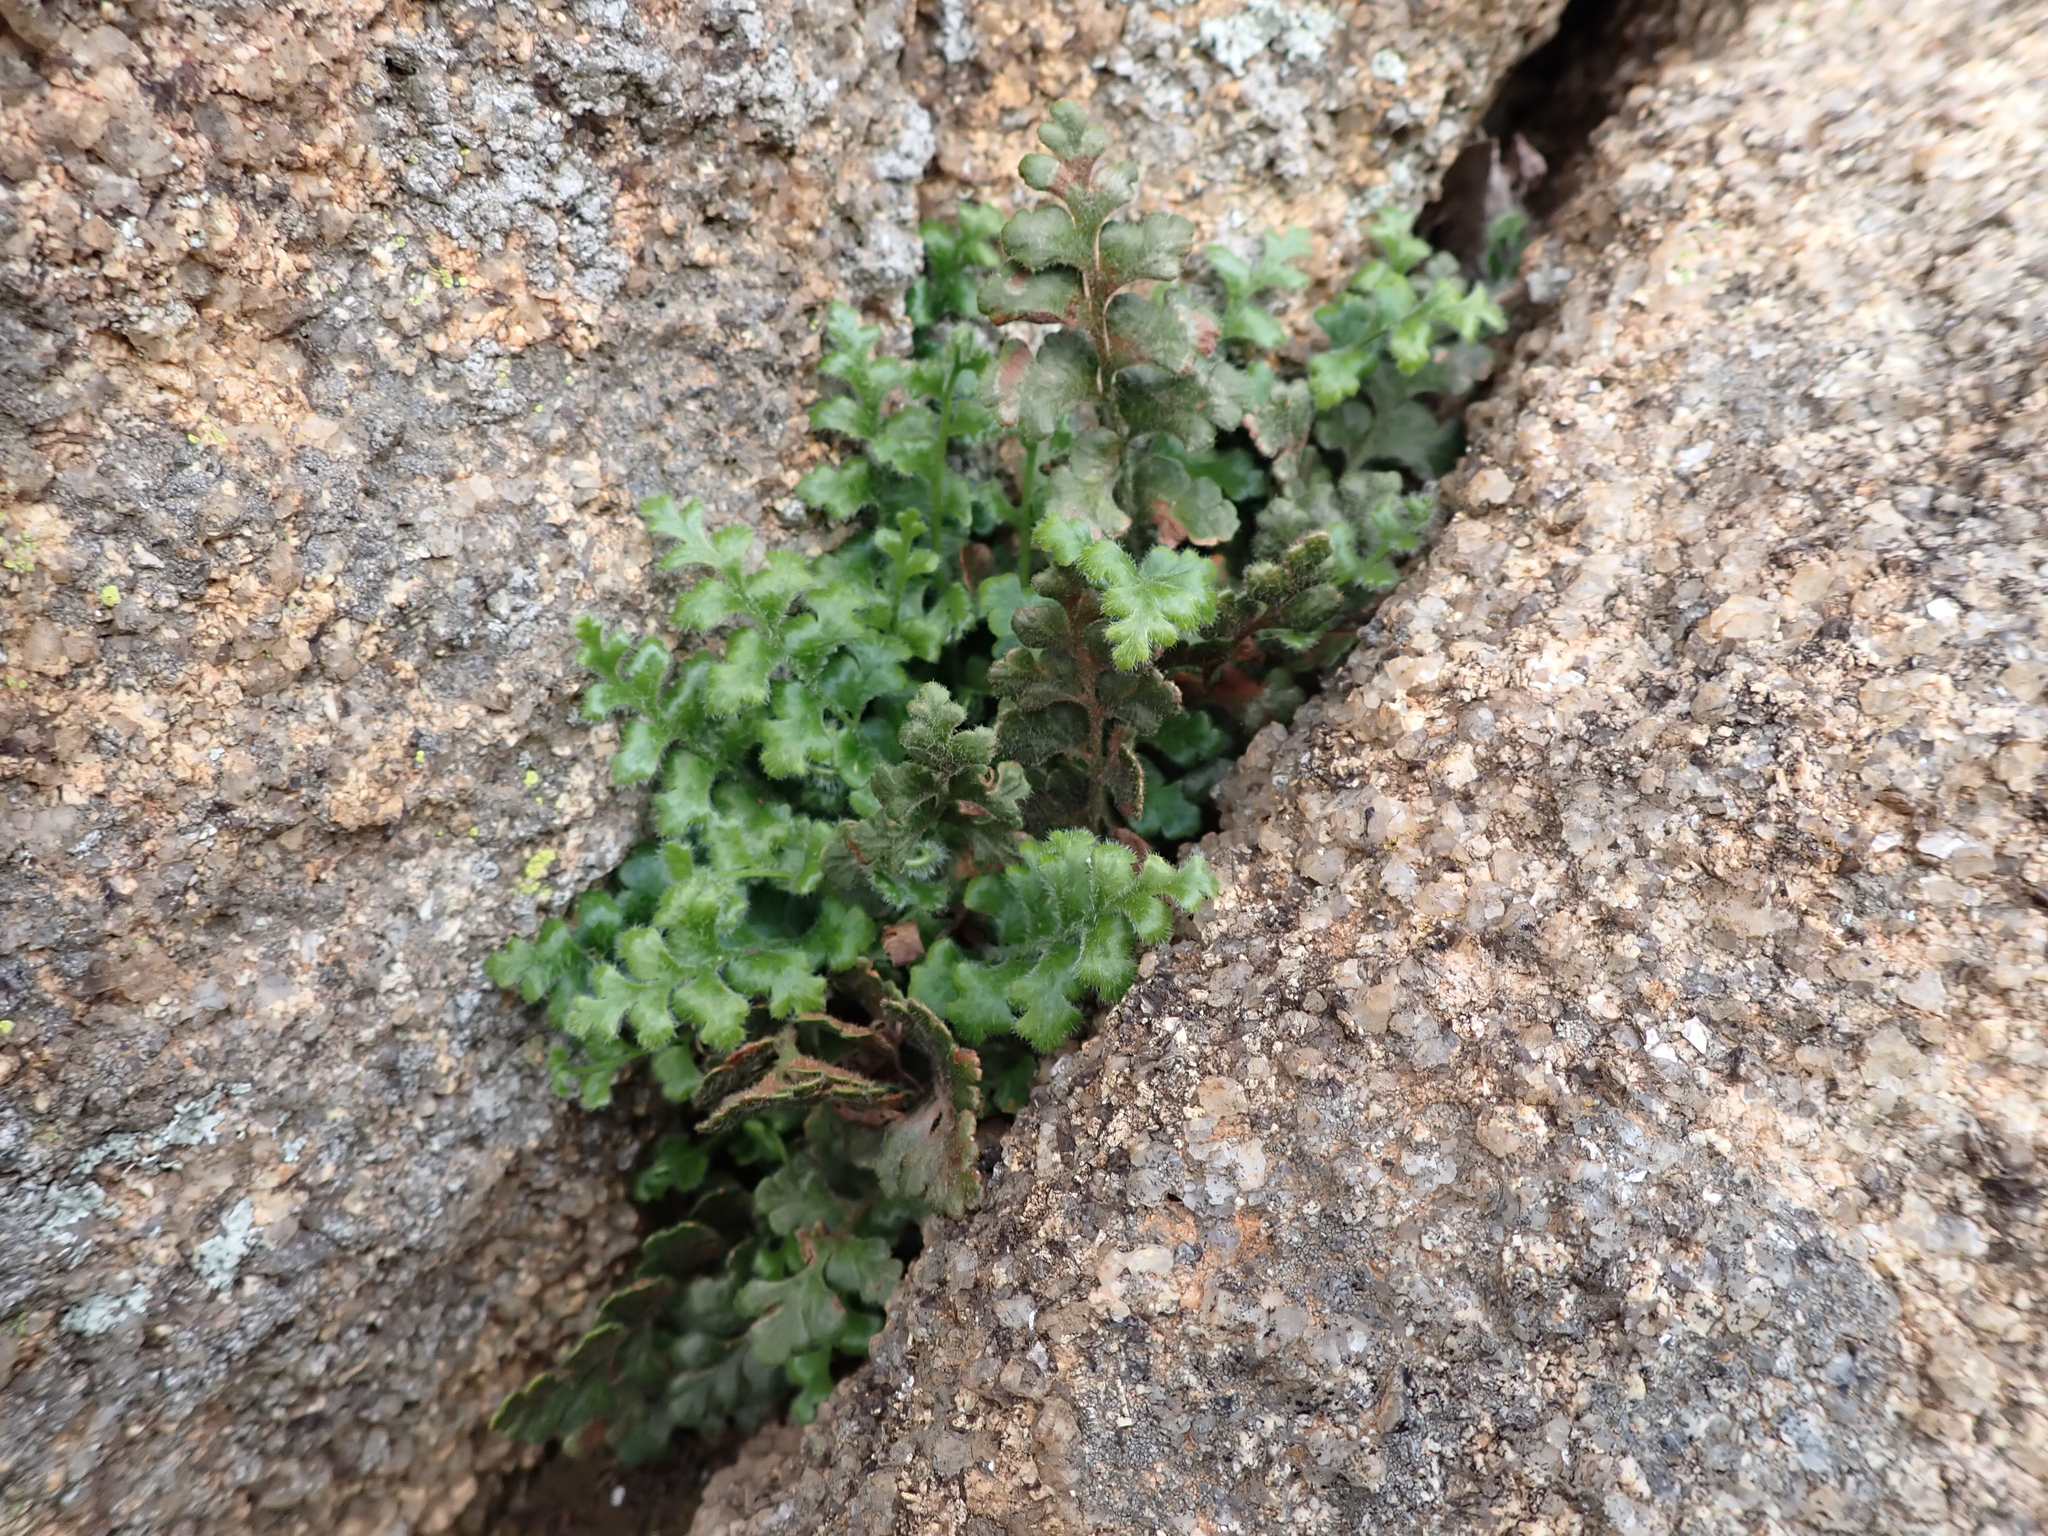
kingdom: Plantae
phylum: Tracheophyta
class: Polypodiopsida
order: Polypodiales
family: Aspleniaceae
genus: Asplenium
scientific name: Asplenium subglandulosum
